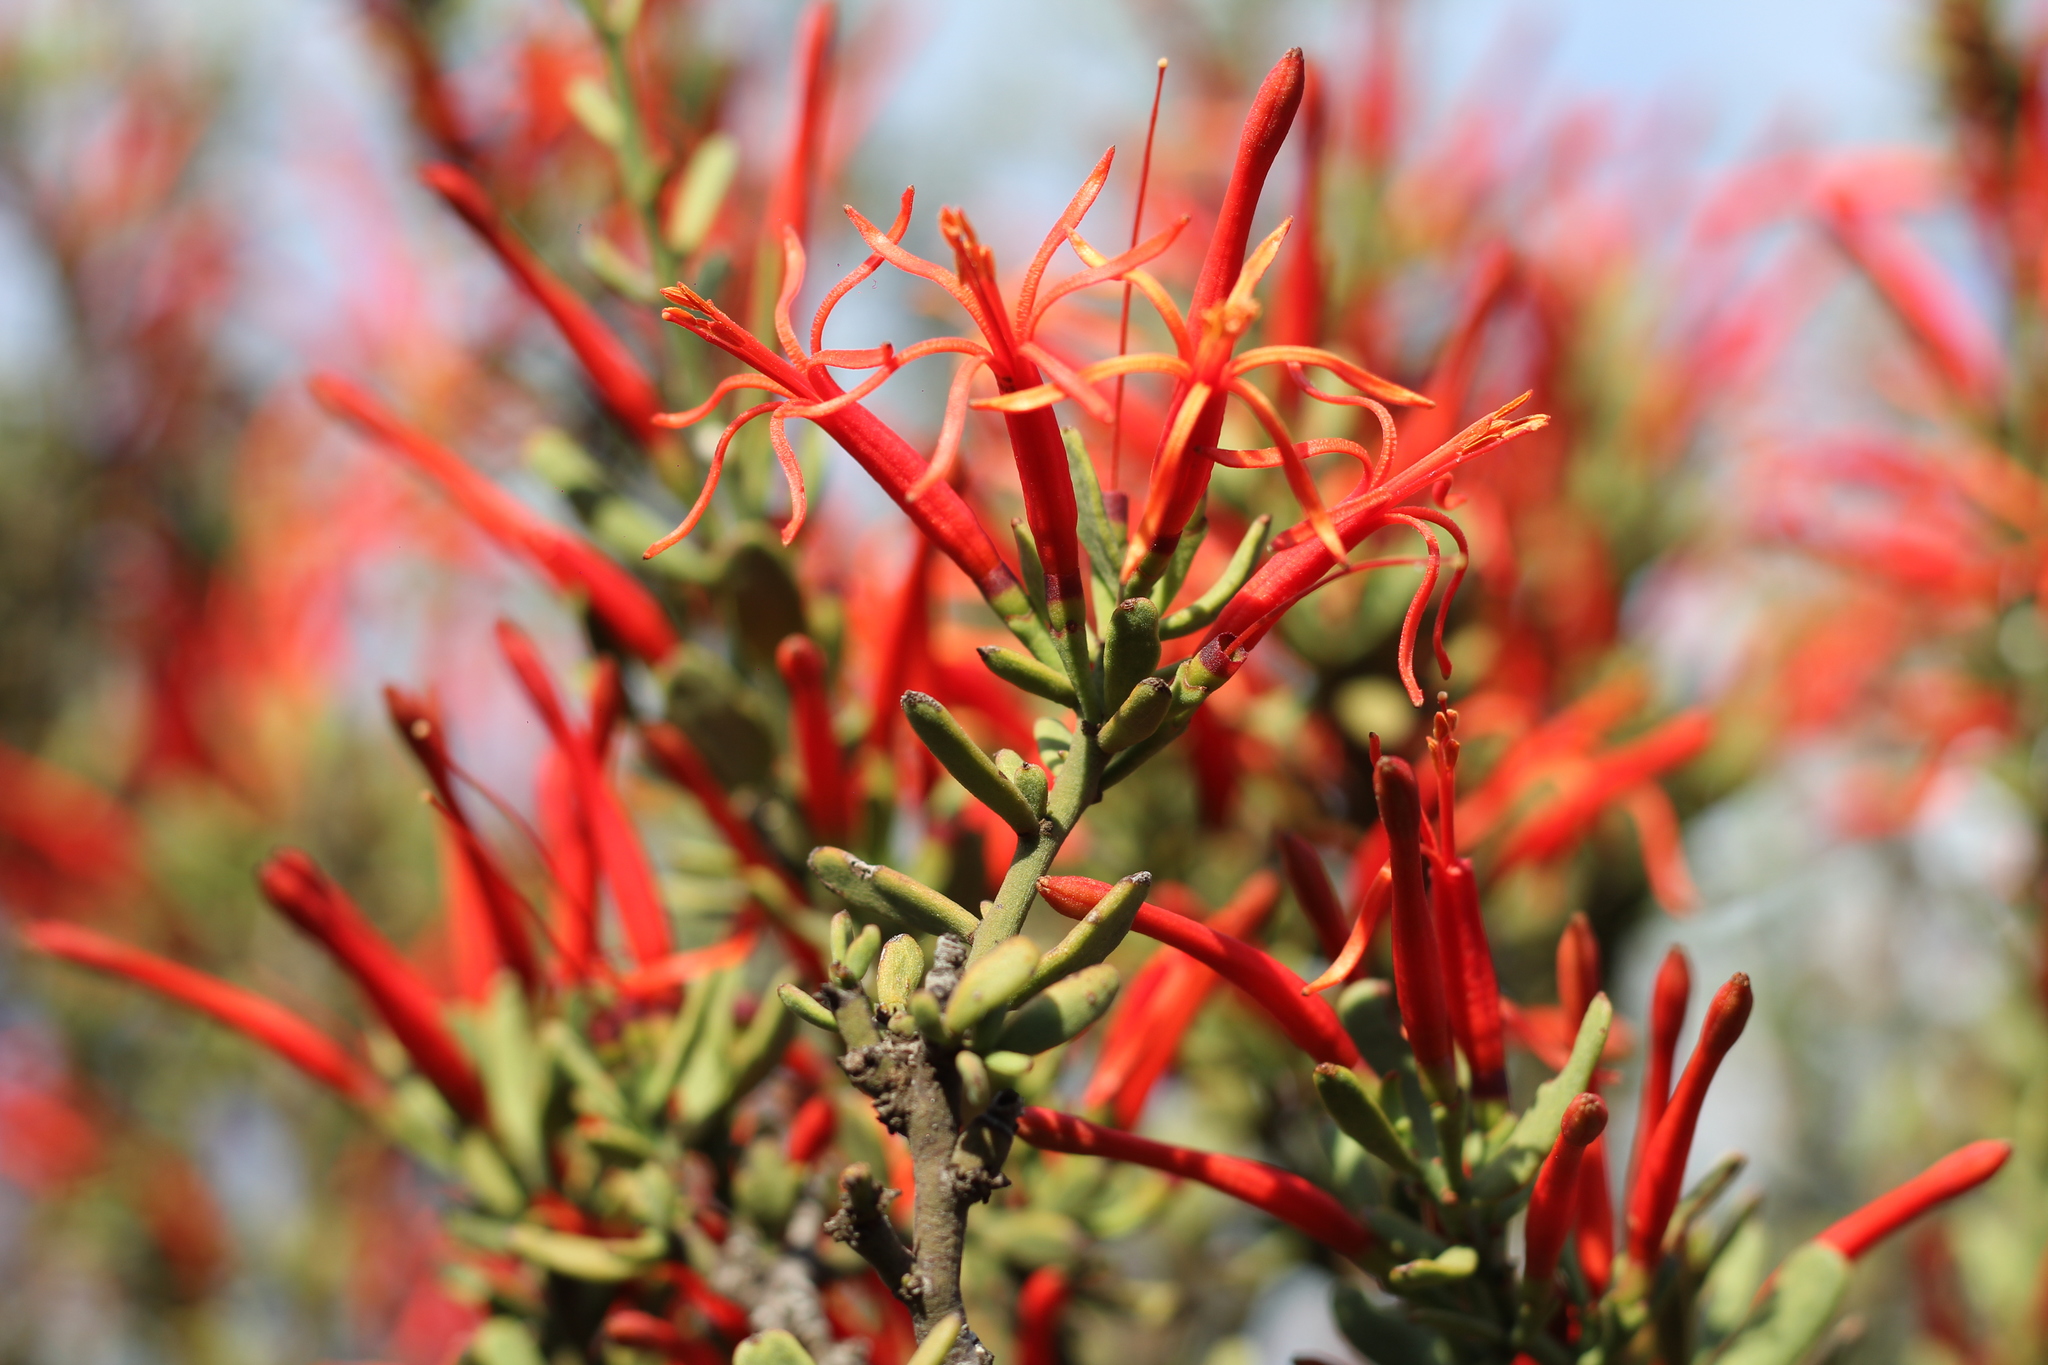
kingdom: Plantae
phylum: Tracheophyta
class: Magnoliopsida
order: Santalales
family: Loranthaceae
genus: Ligaria
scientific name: Ligaria cuneifolia
